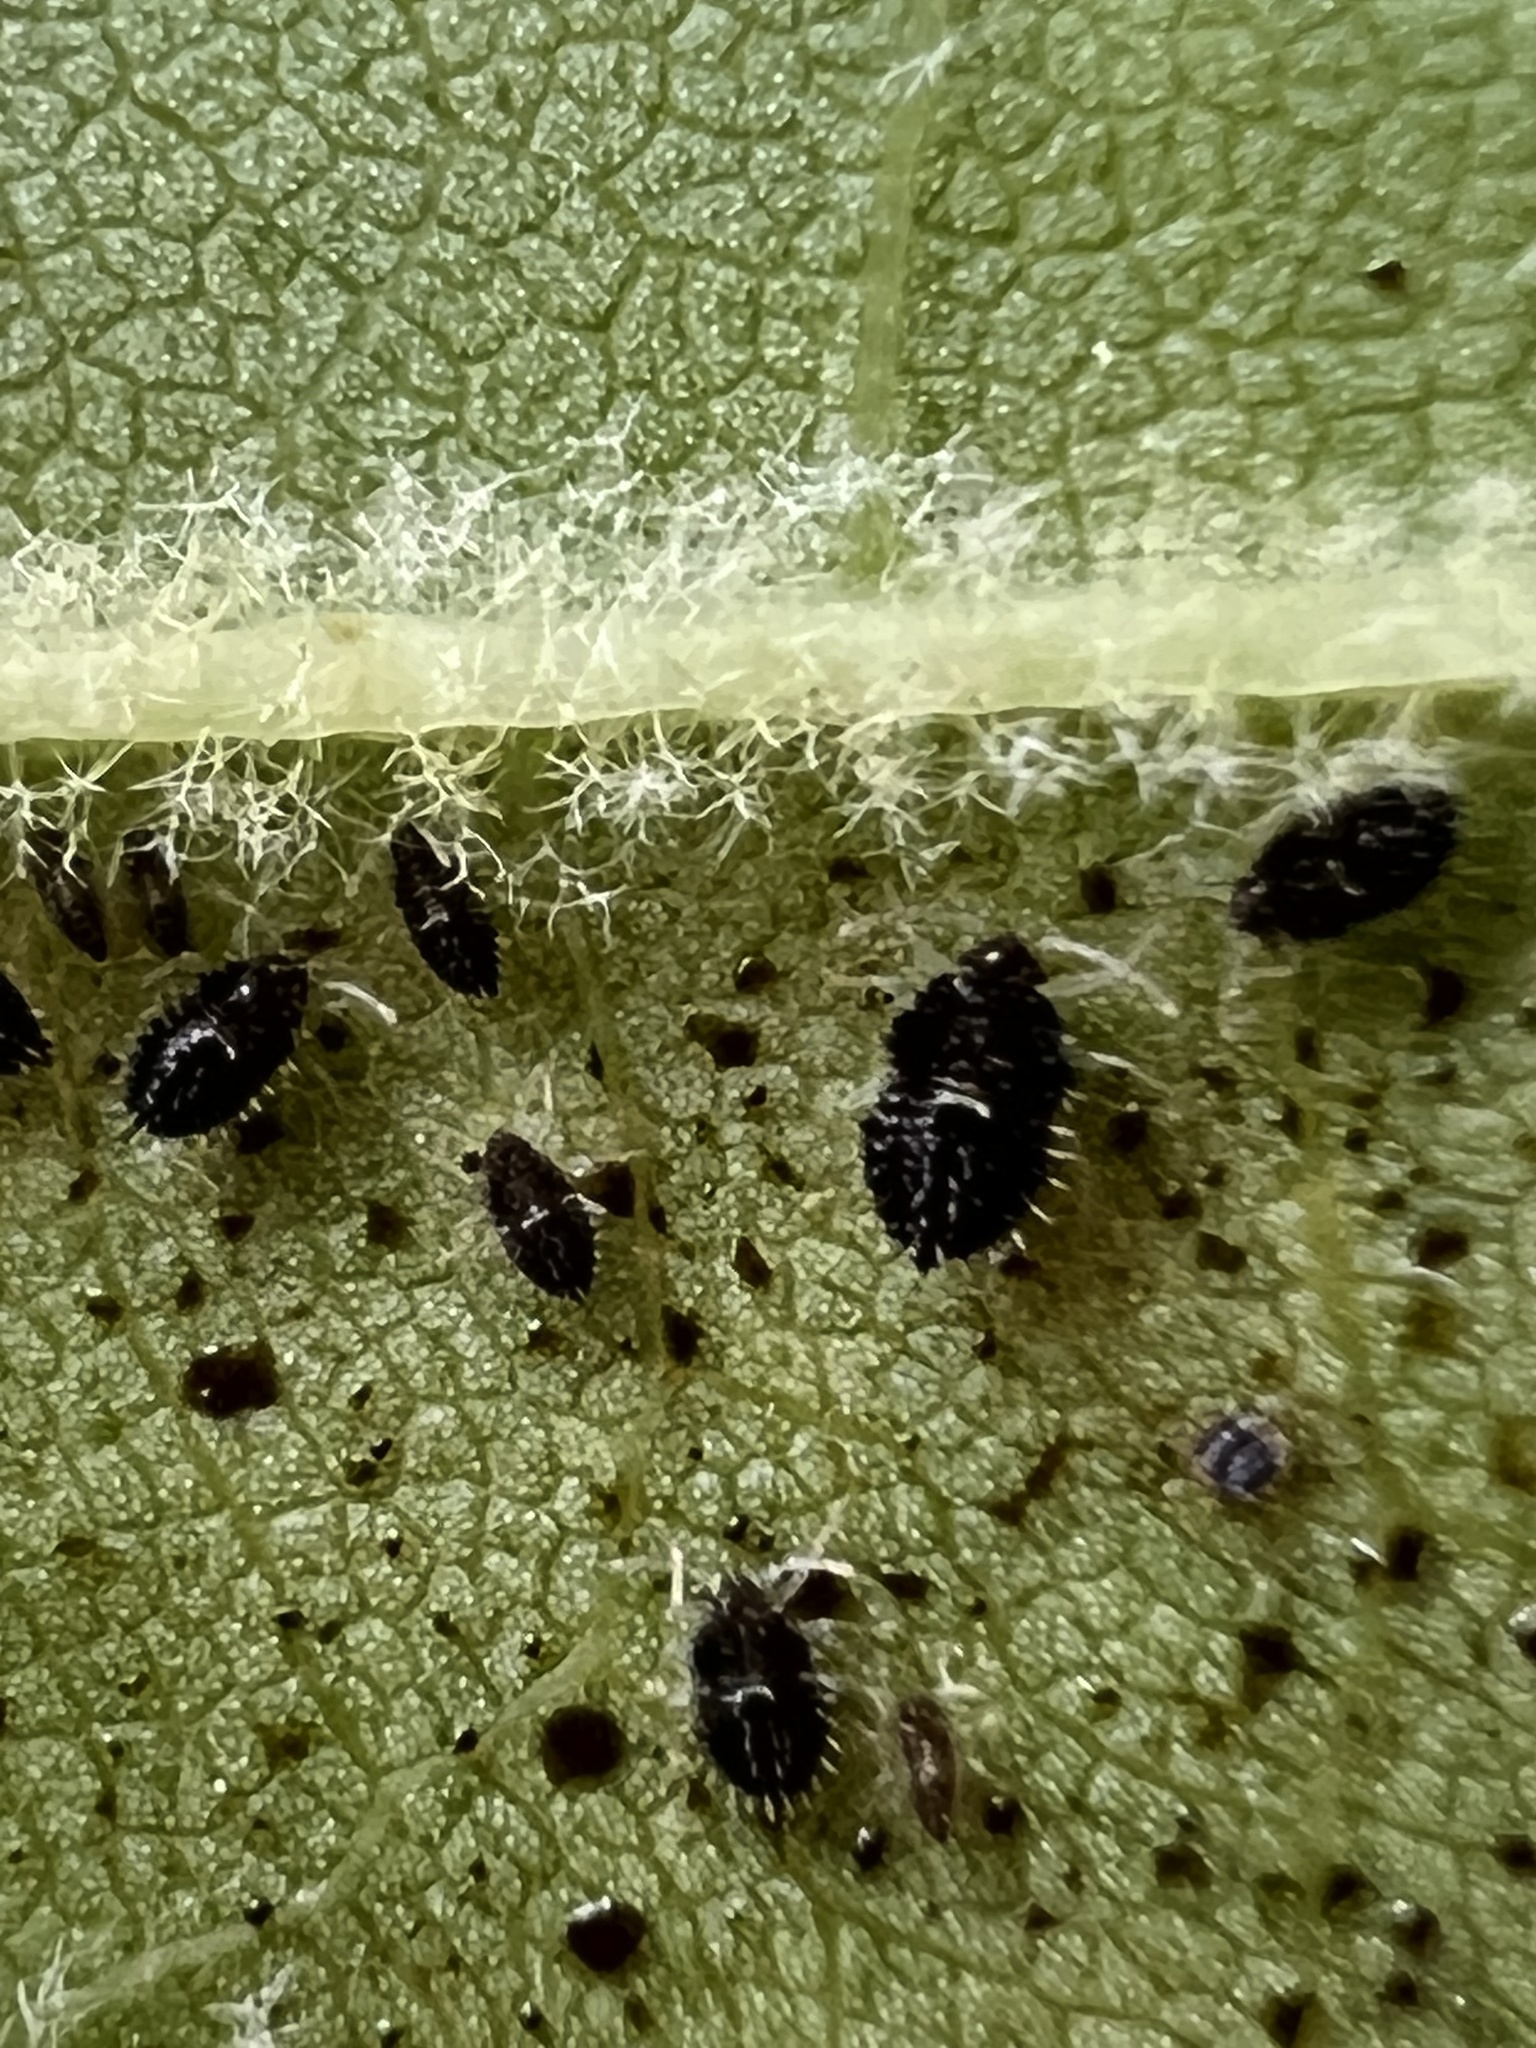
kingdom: Animalia
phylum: Arthropoda
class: Insecta
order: Hemiptera
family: Tingidae
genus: Corythucha
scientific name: Corythucha ciliata
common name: Sycamore lace bug
